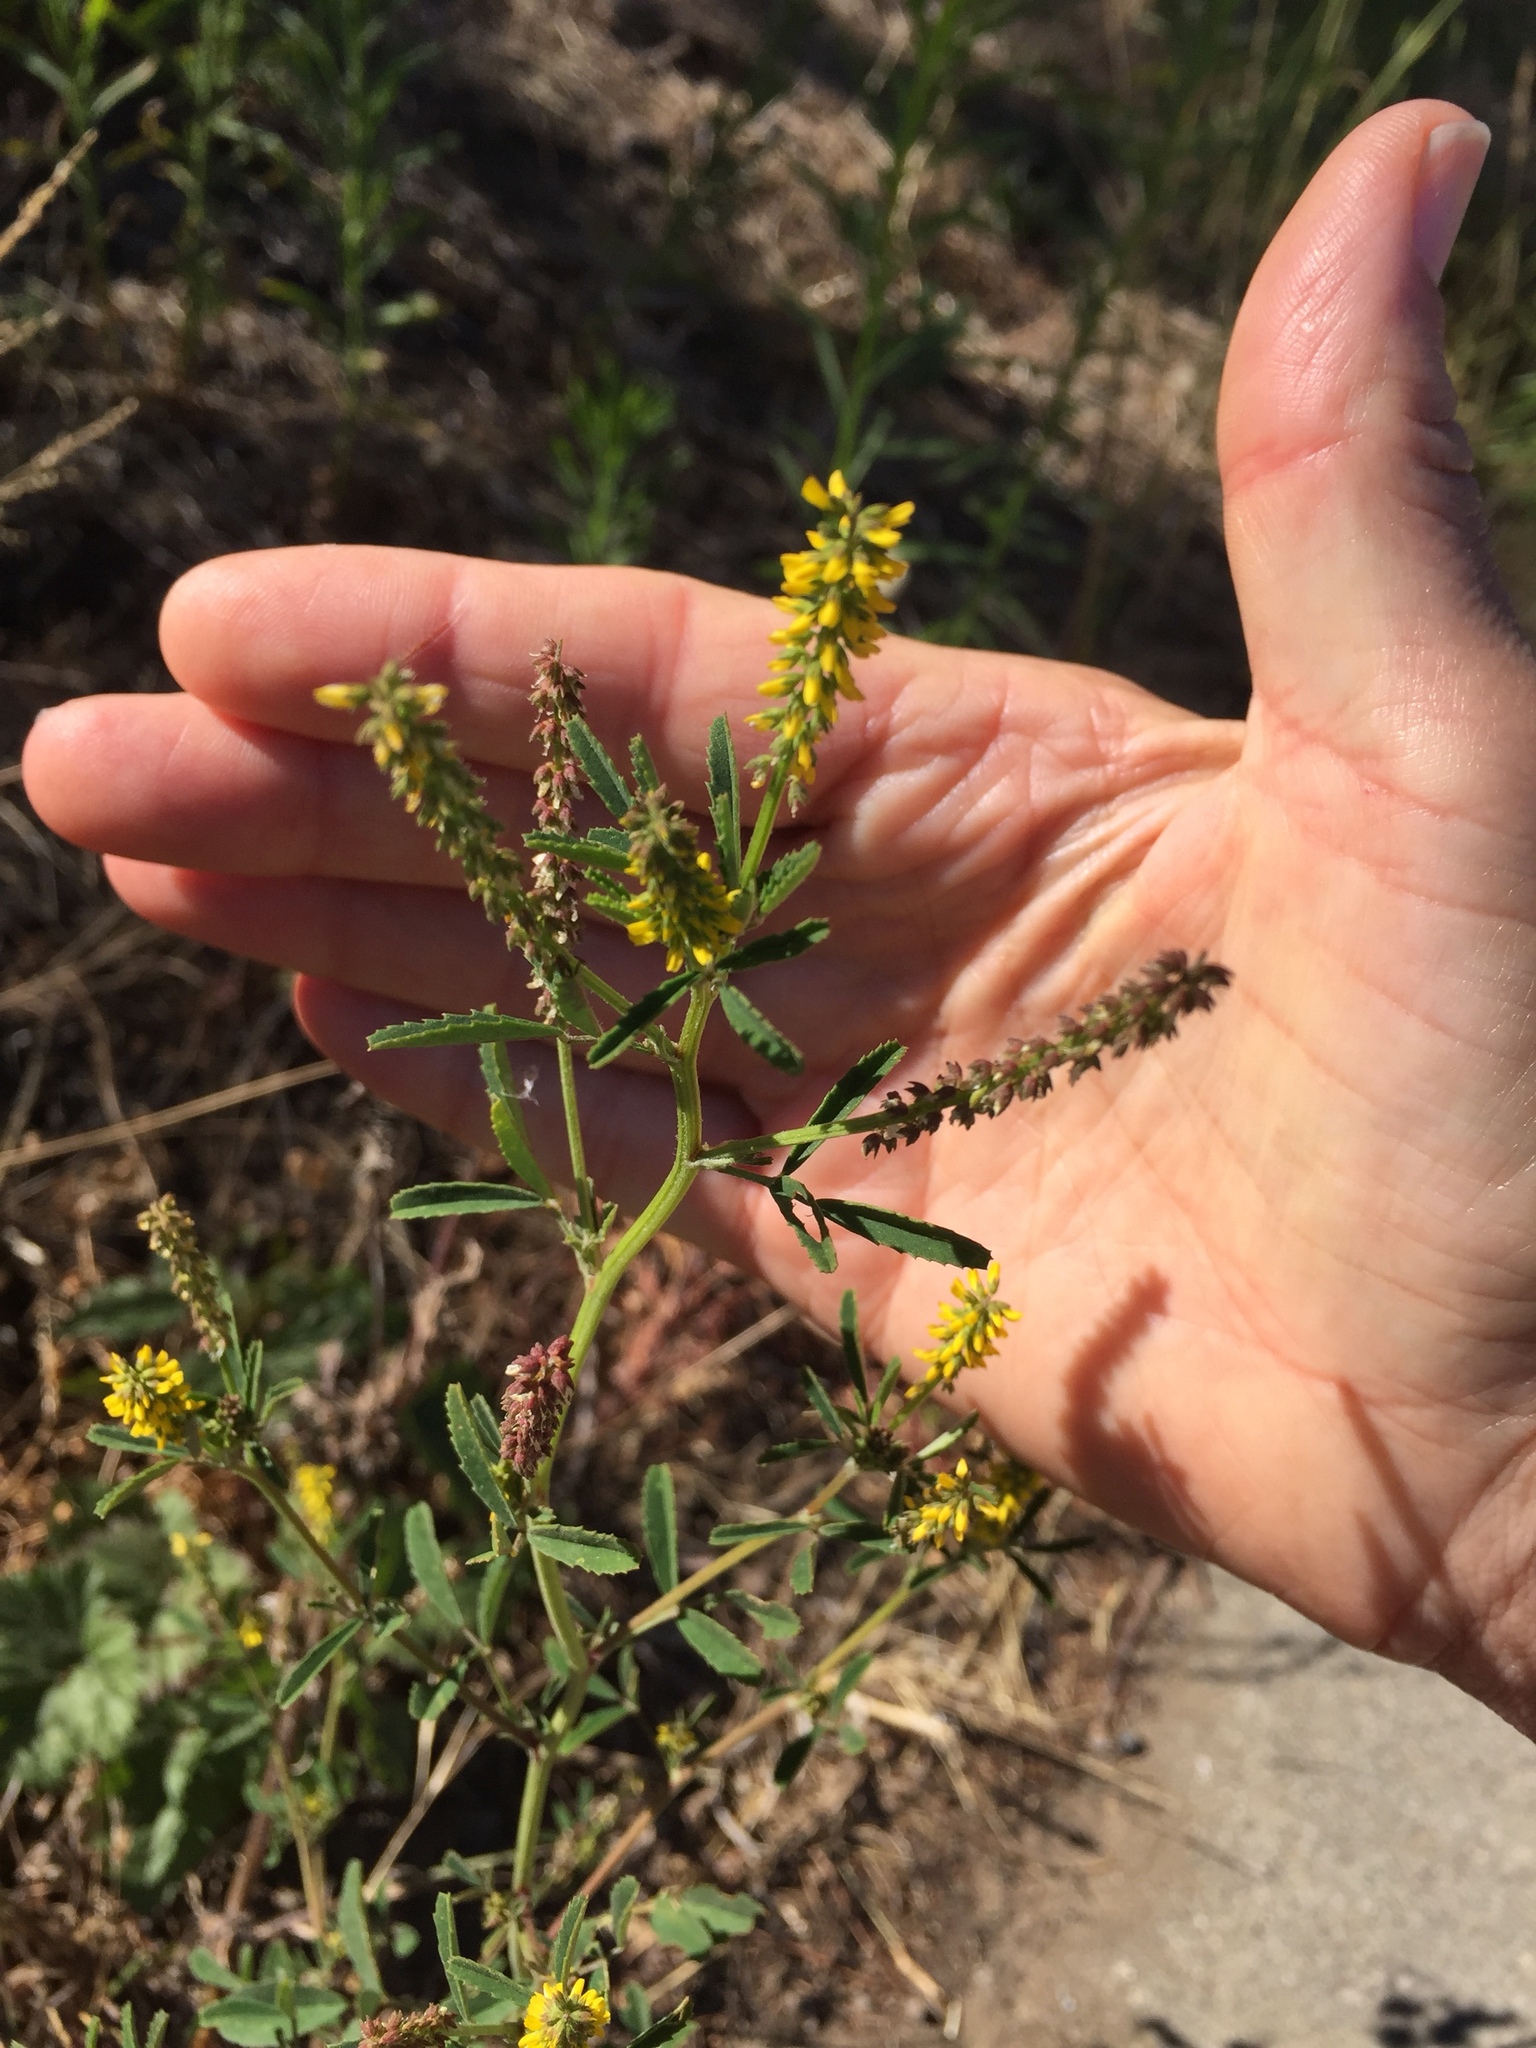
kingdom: Plantae
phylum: Tracheophyta
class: Magnoliopsida
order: Fabales
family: Fabaceae
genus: Melilotus
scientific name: Melilotus indicus
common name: Small melilot
